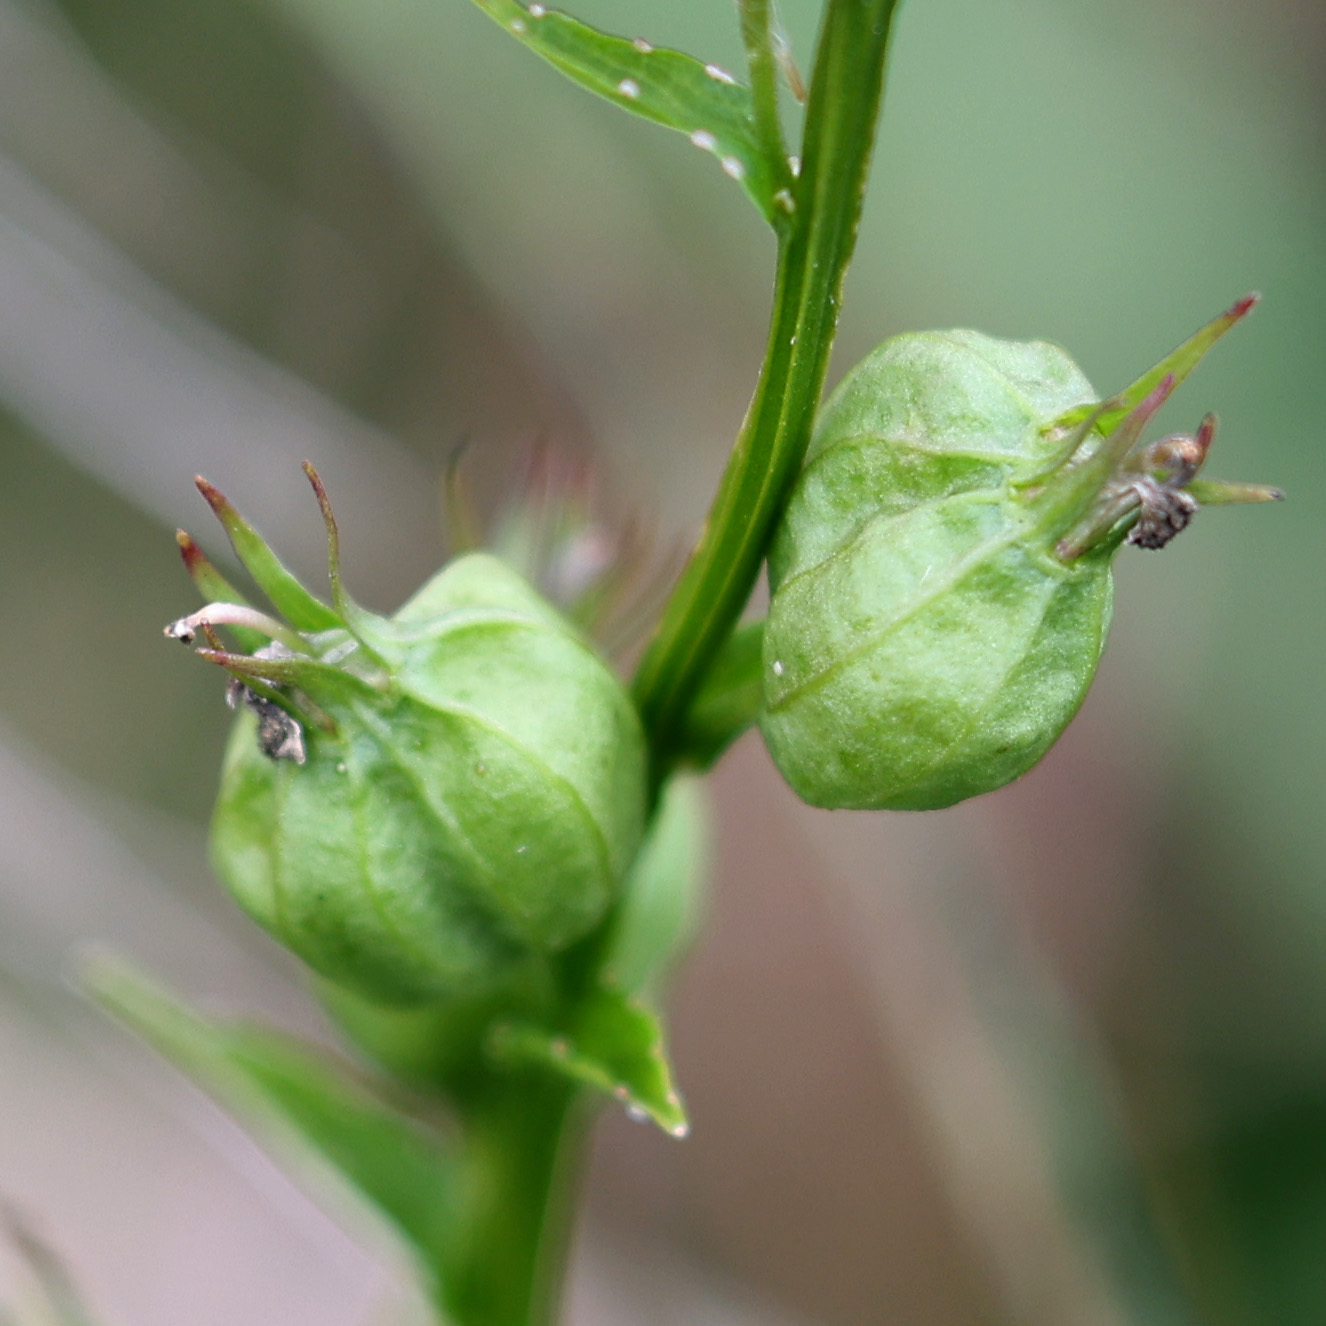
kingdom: Plantae
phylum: Tracheophyta
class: Magnoliopsida
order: Asterales
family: Campanulaceae
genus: Lobelia
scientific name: Lobelia inflata
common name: Indian tobacco
